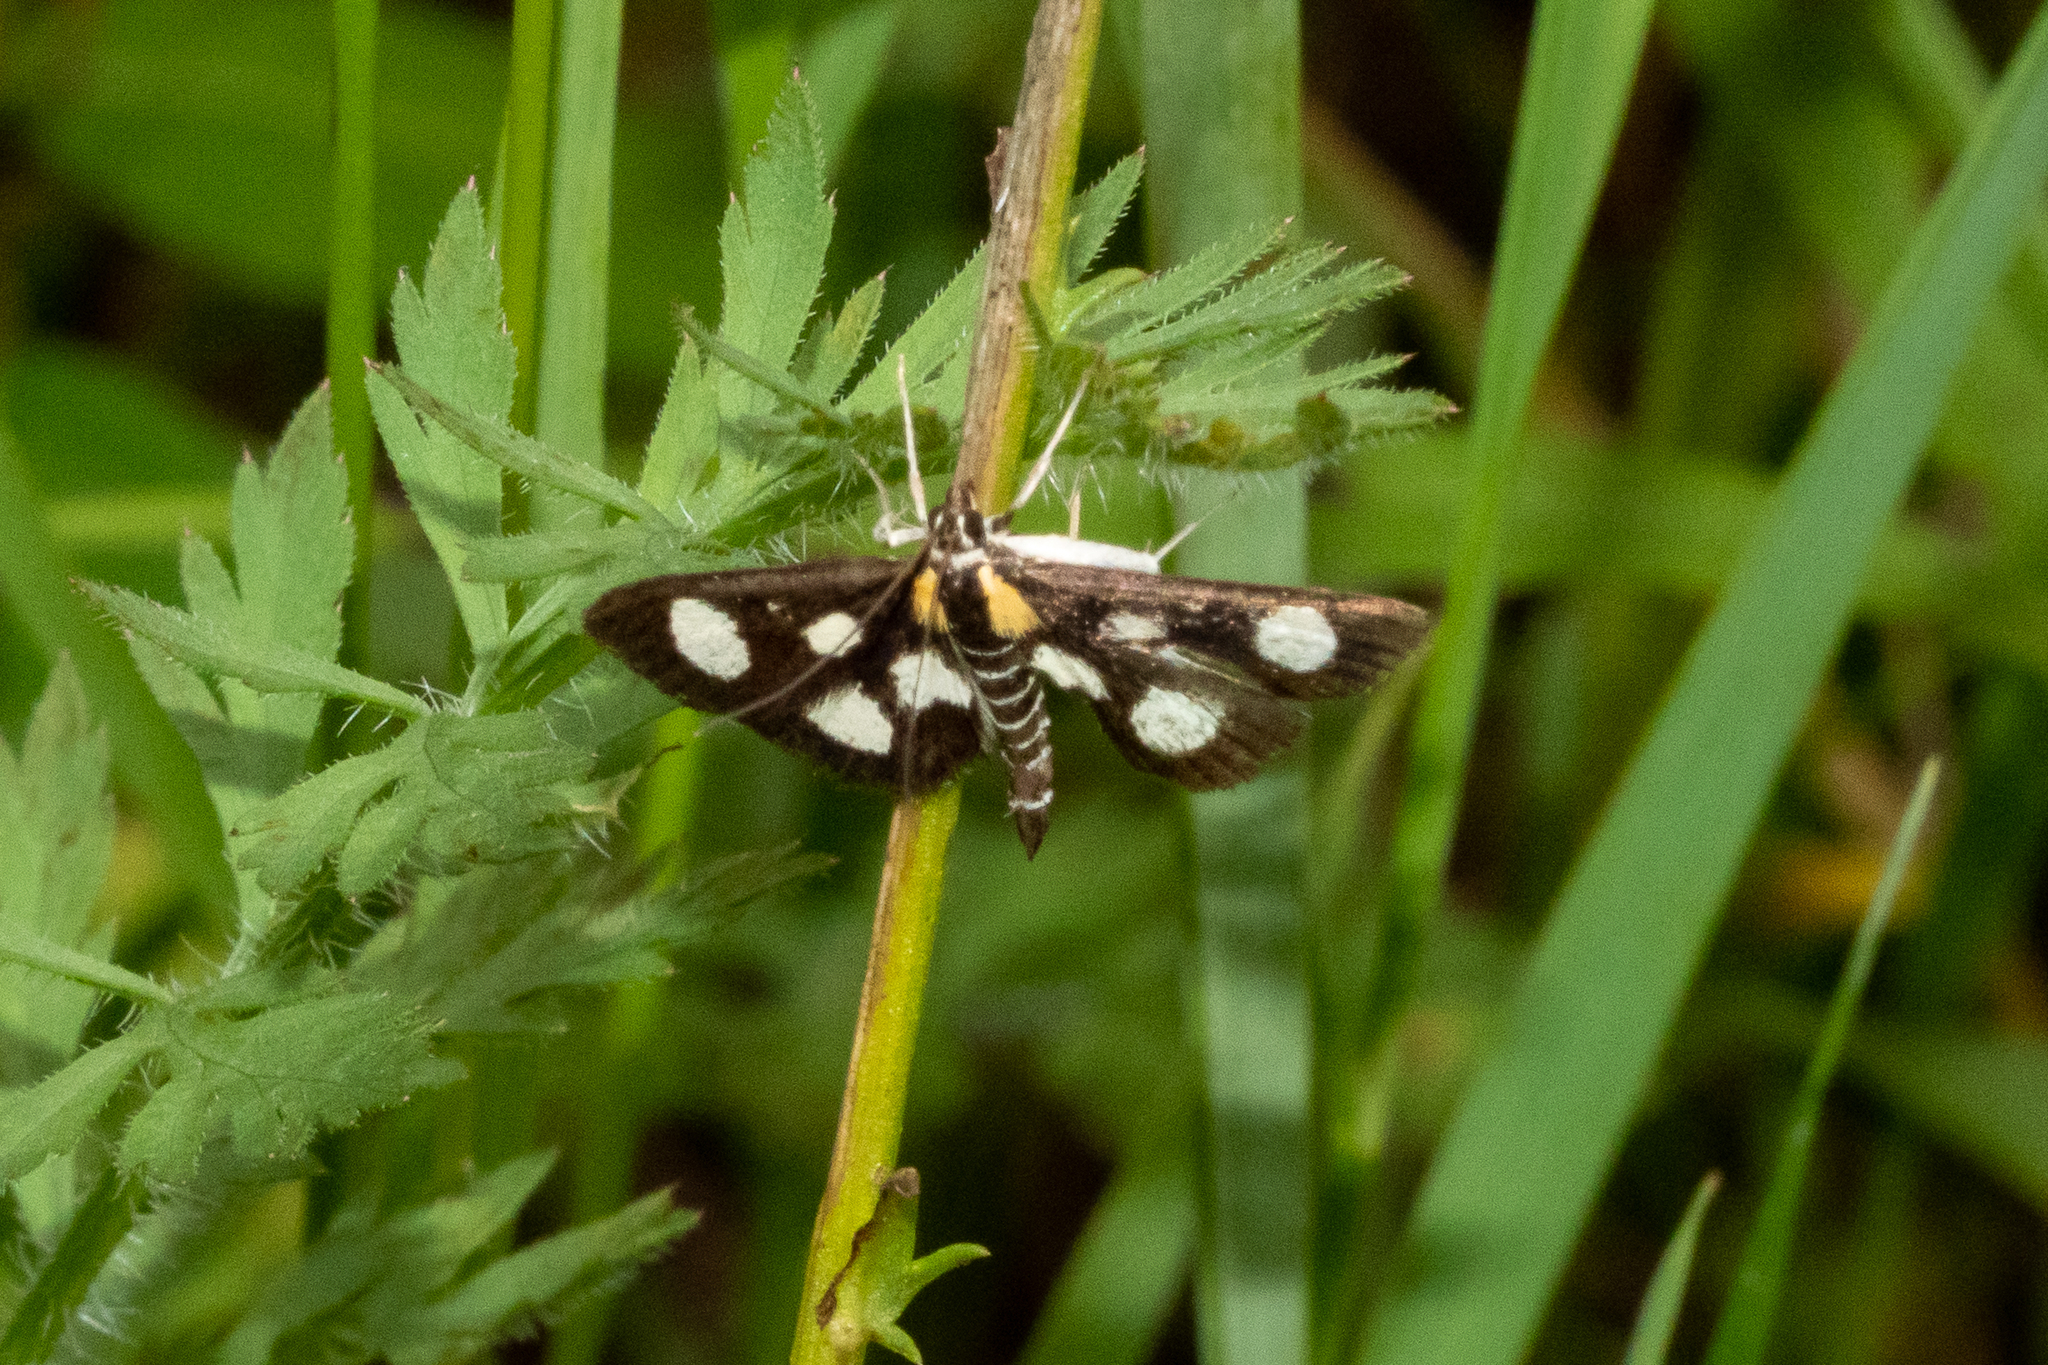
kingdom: Animalia
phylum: Arthropoda
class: Insecta
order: Lepidoptera
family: Crambidae
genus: Anania
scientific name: Anania funebris
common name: White-spotted sable moth
